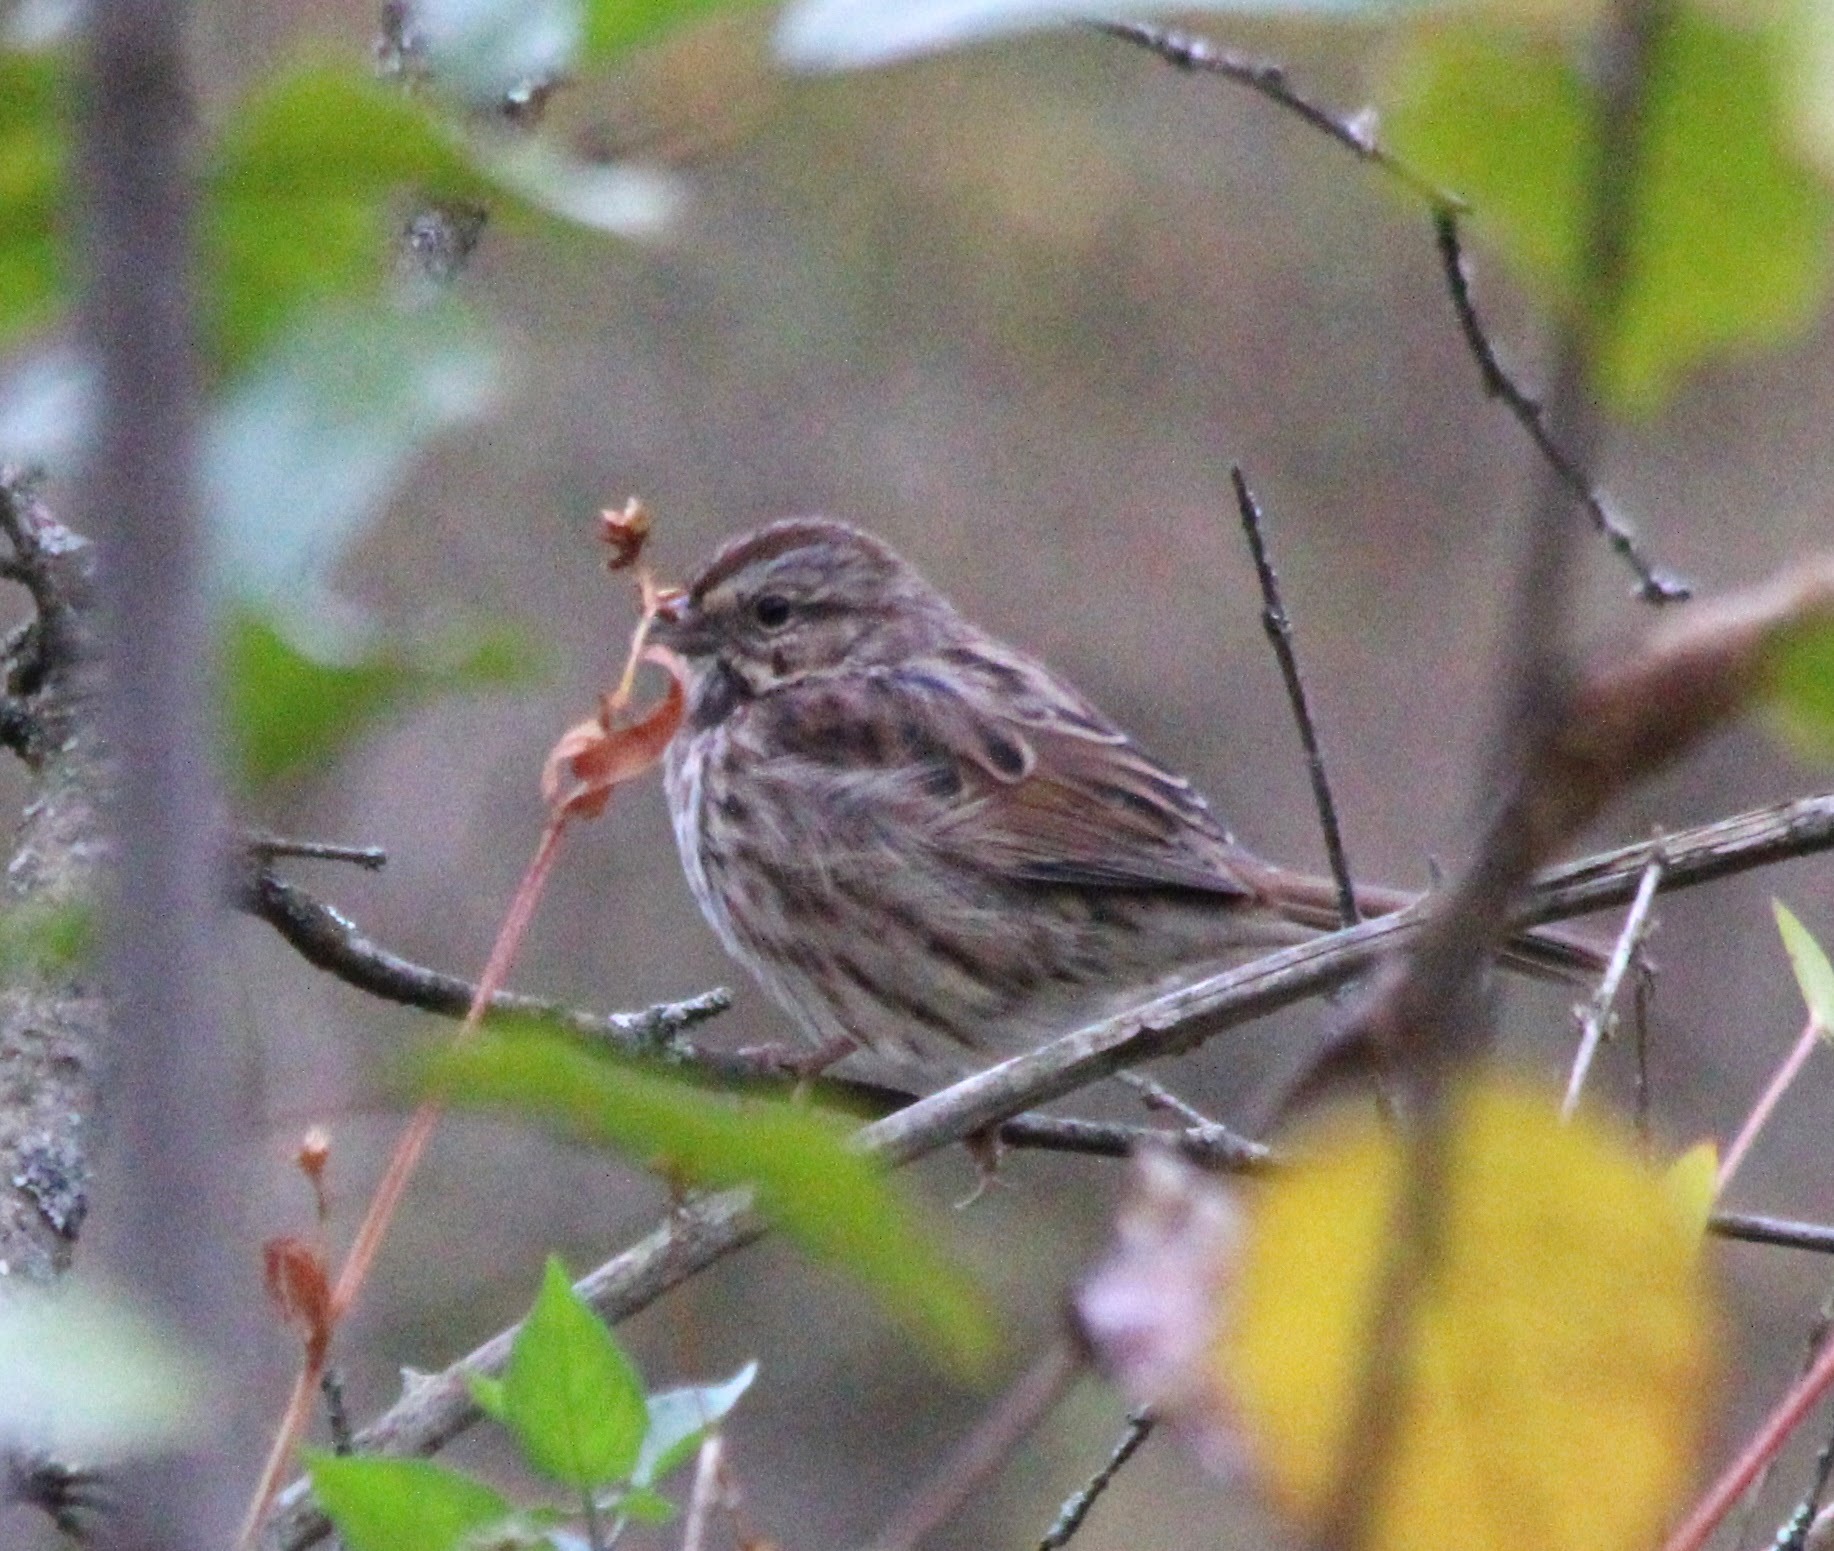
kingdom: Animalia
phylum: Chordata
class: Aves
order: Passeriformes
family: Passerellidae
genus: Melospiza
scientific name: Melospiza melodia
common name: Song sparrow
